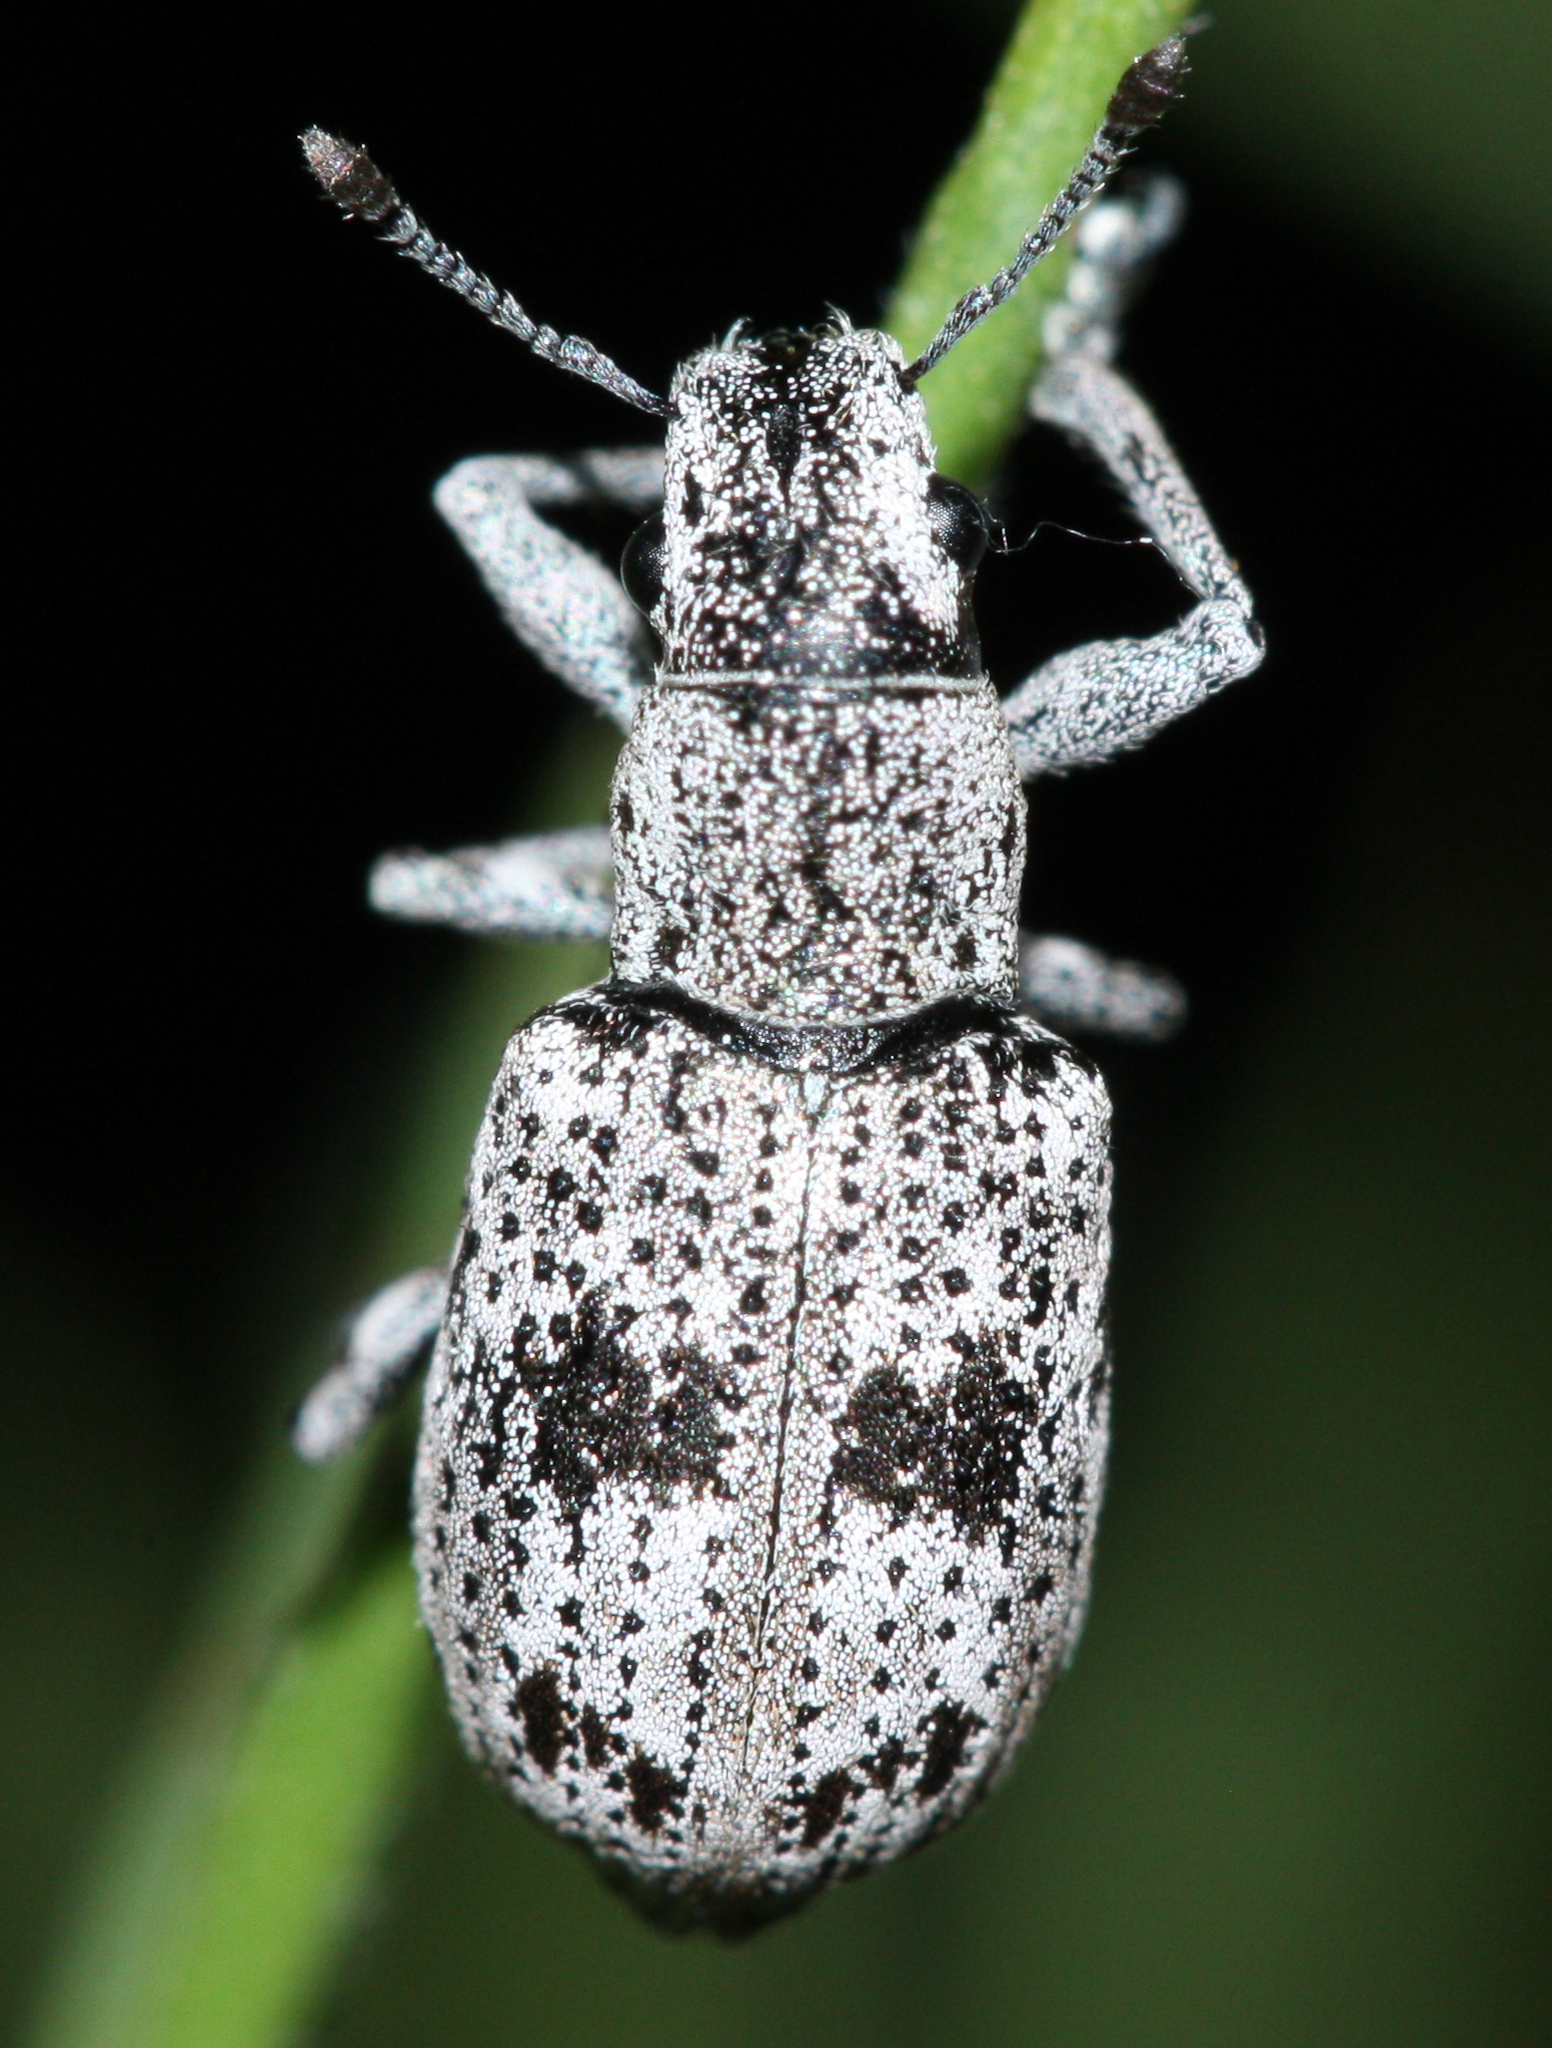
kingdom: Animalia
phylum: Arthropoda
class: Insecta
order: Coleoptera
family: Curculionidae
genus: Ericydeus
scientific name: Ericydeus lautus
